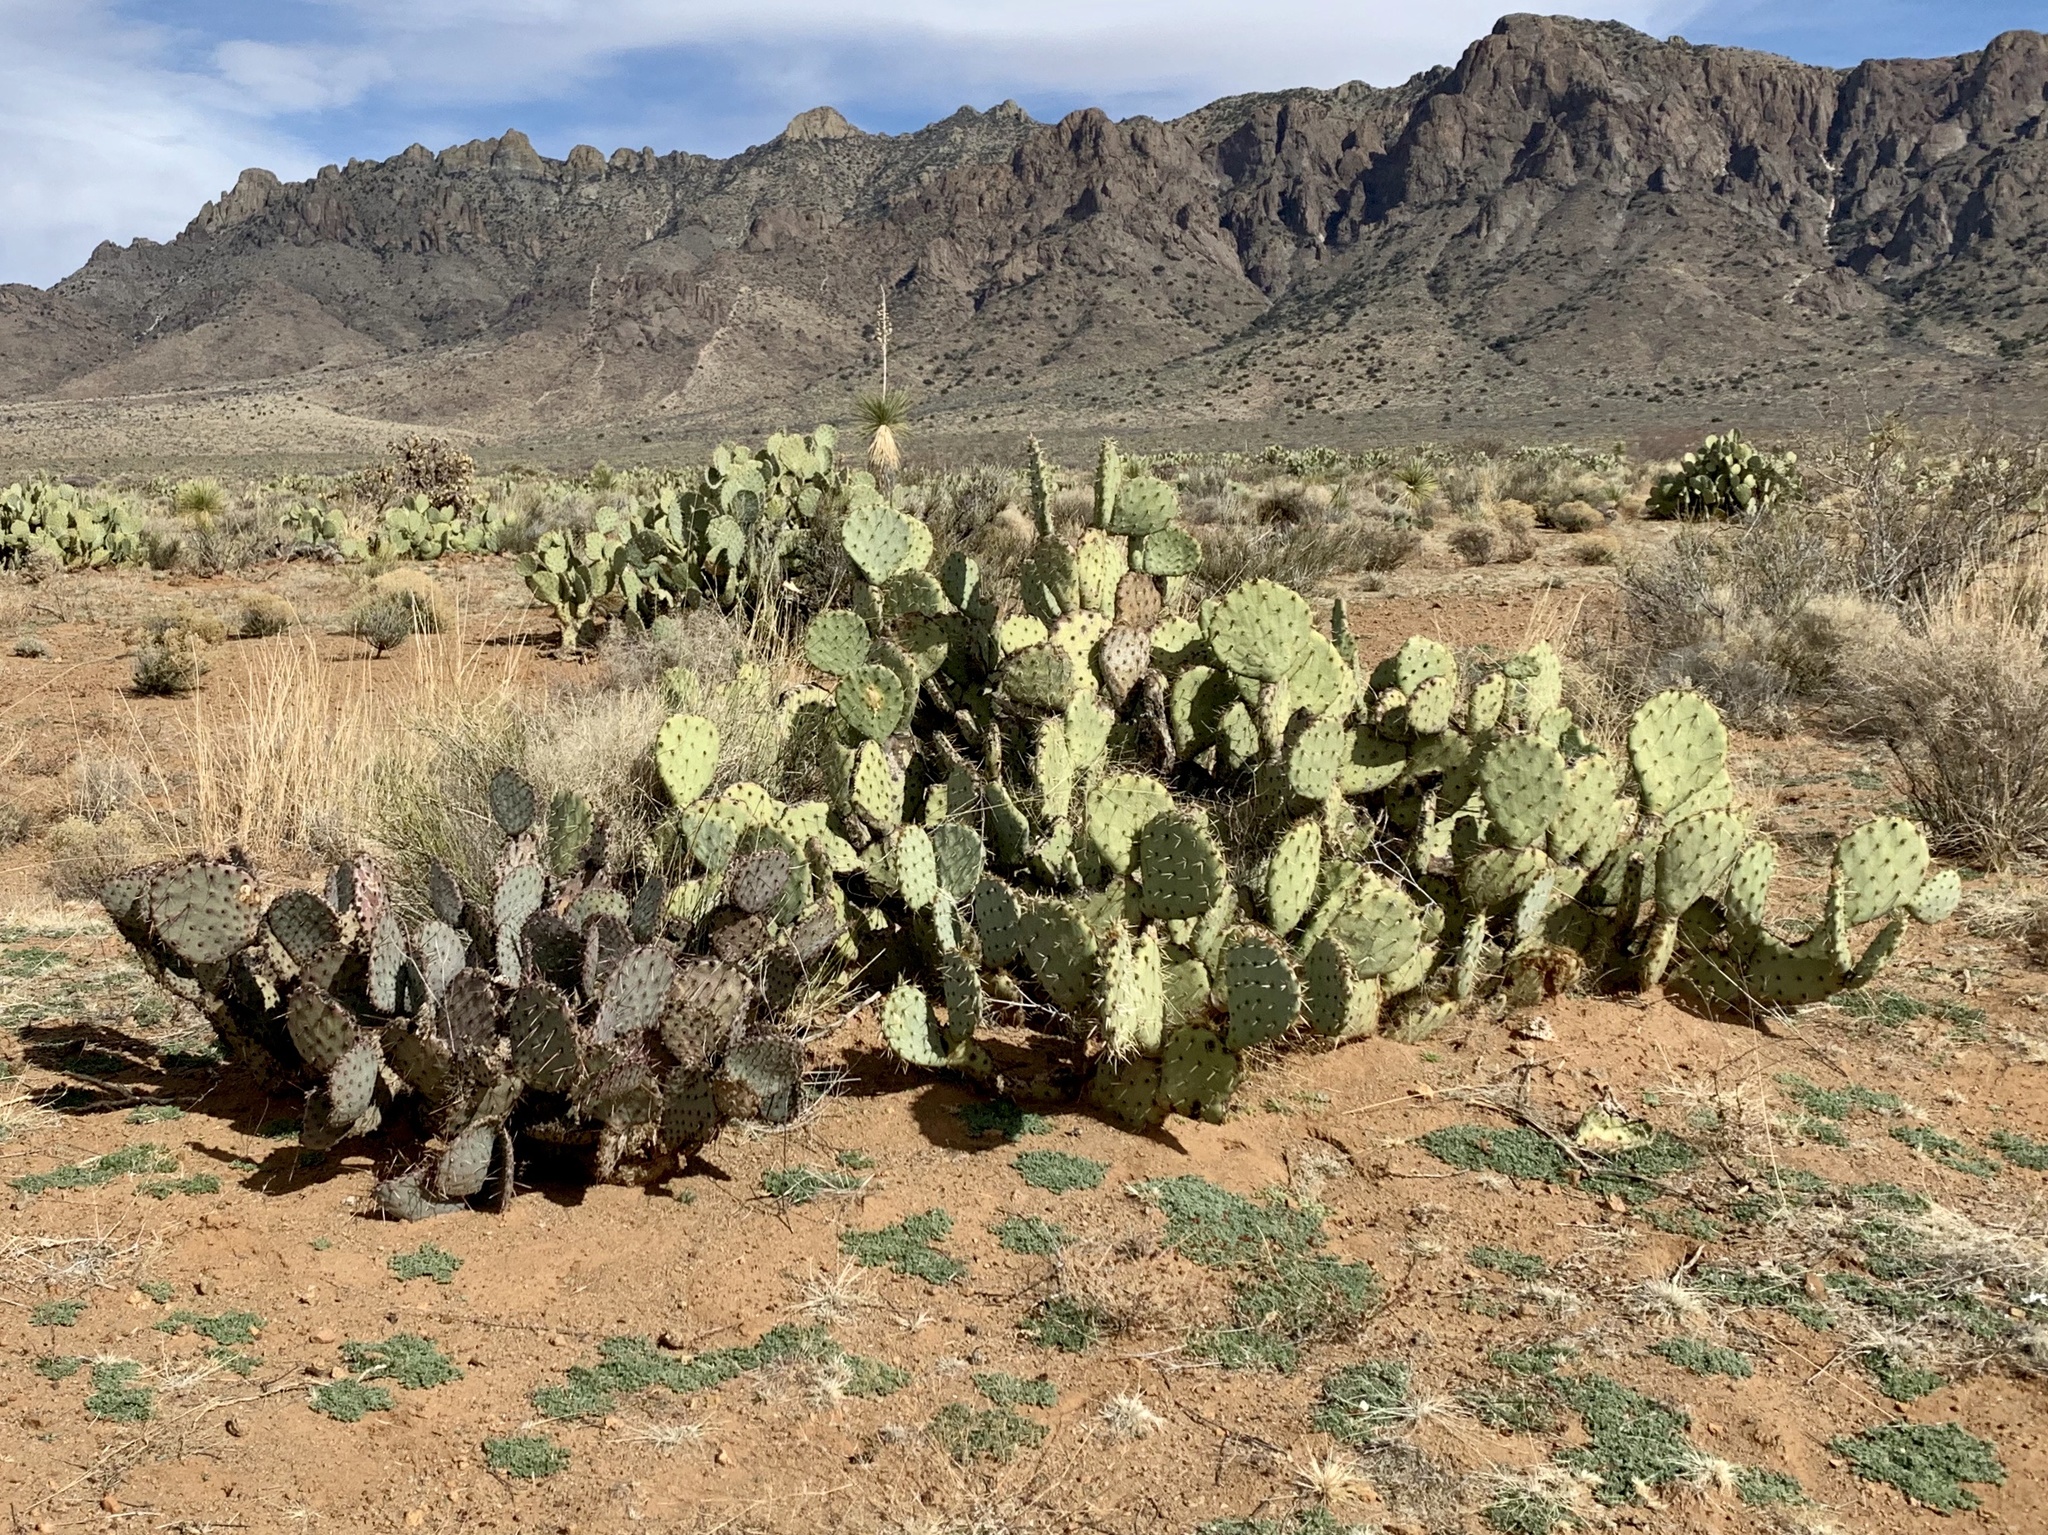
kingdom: Plantae
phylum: Tracheophyta
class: Magnoliopsida
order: Caryophyllales
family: Cactaceae
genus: Opuntia
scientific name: Opuntia engelmannii
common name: Cactus-apple
